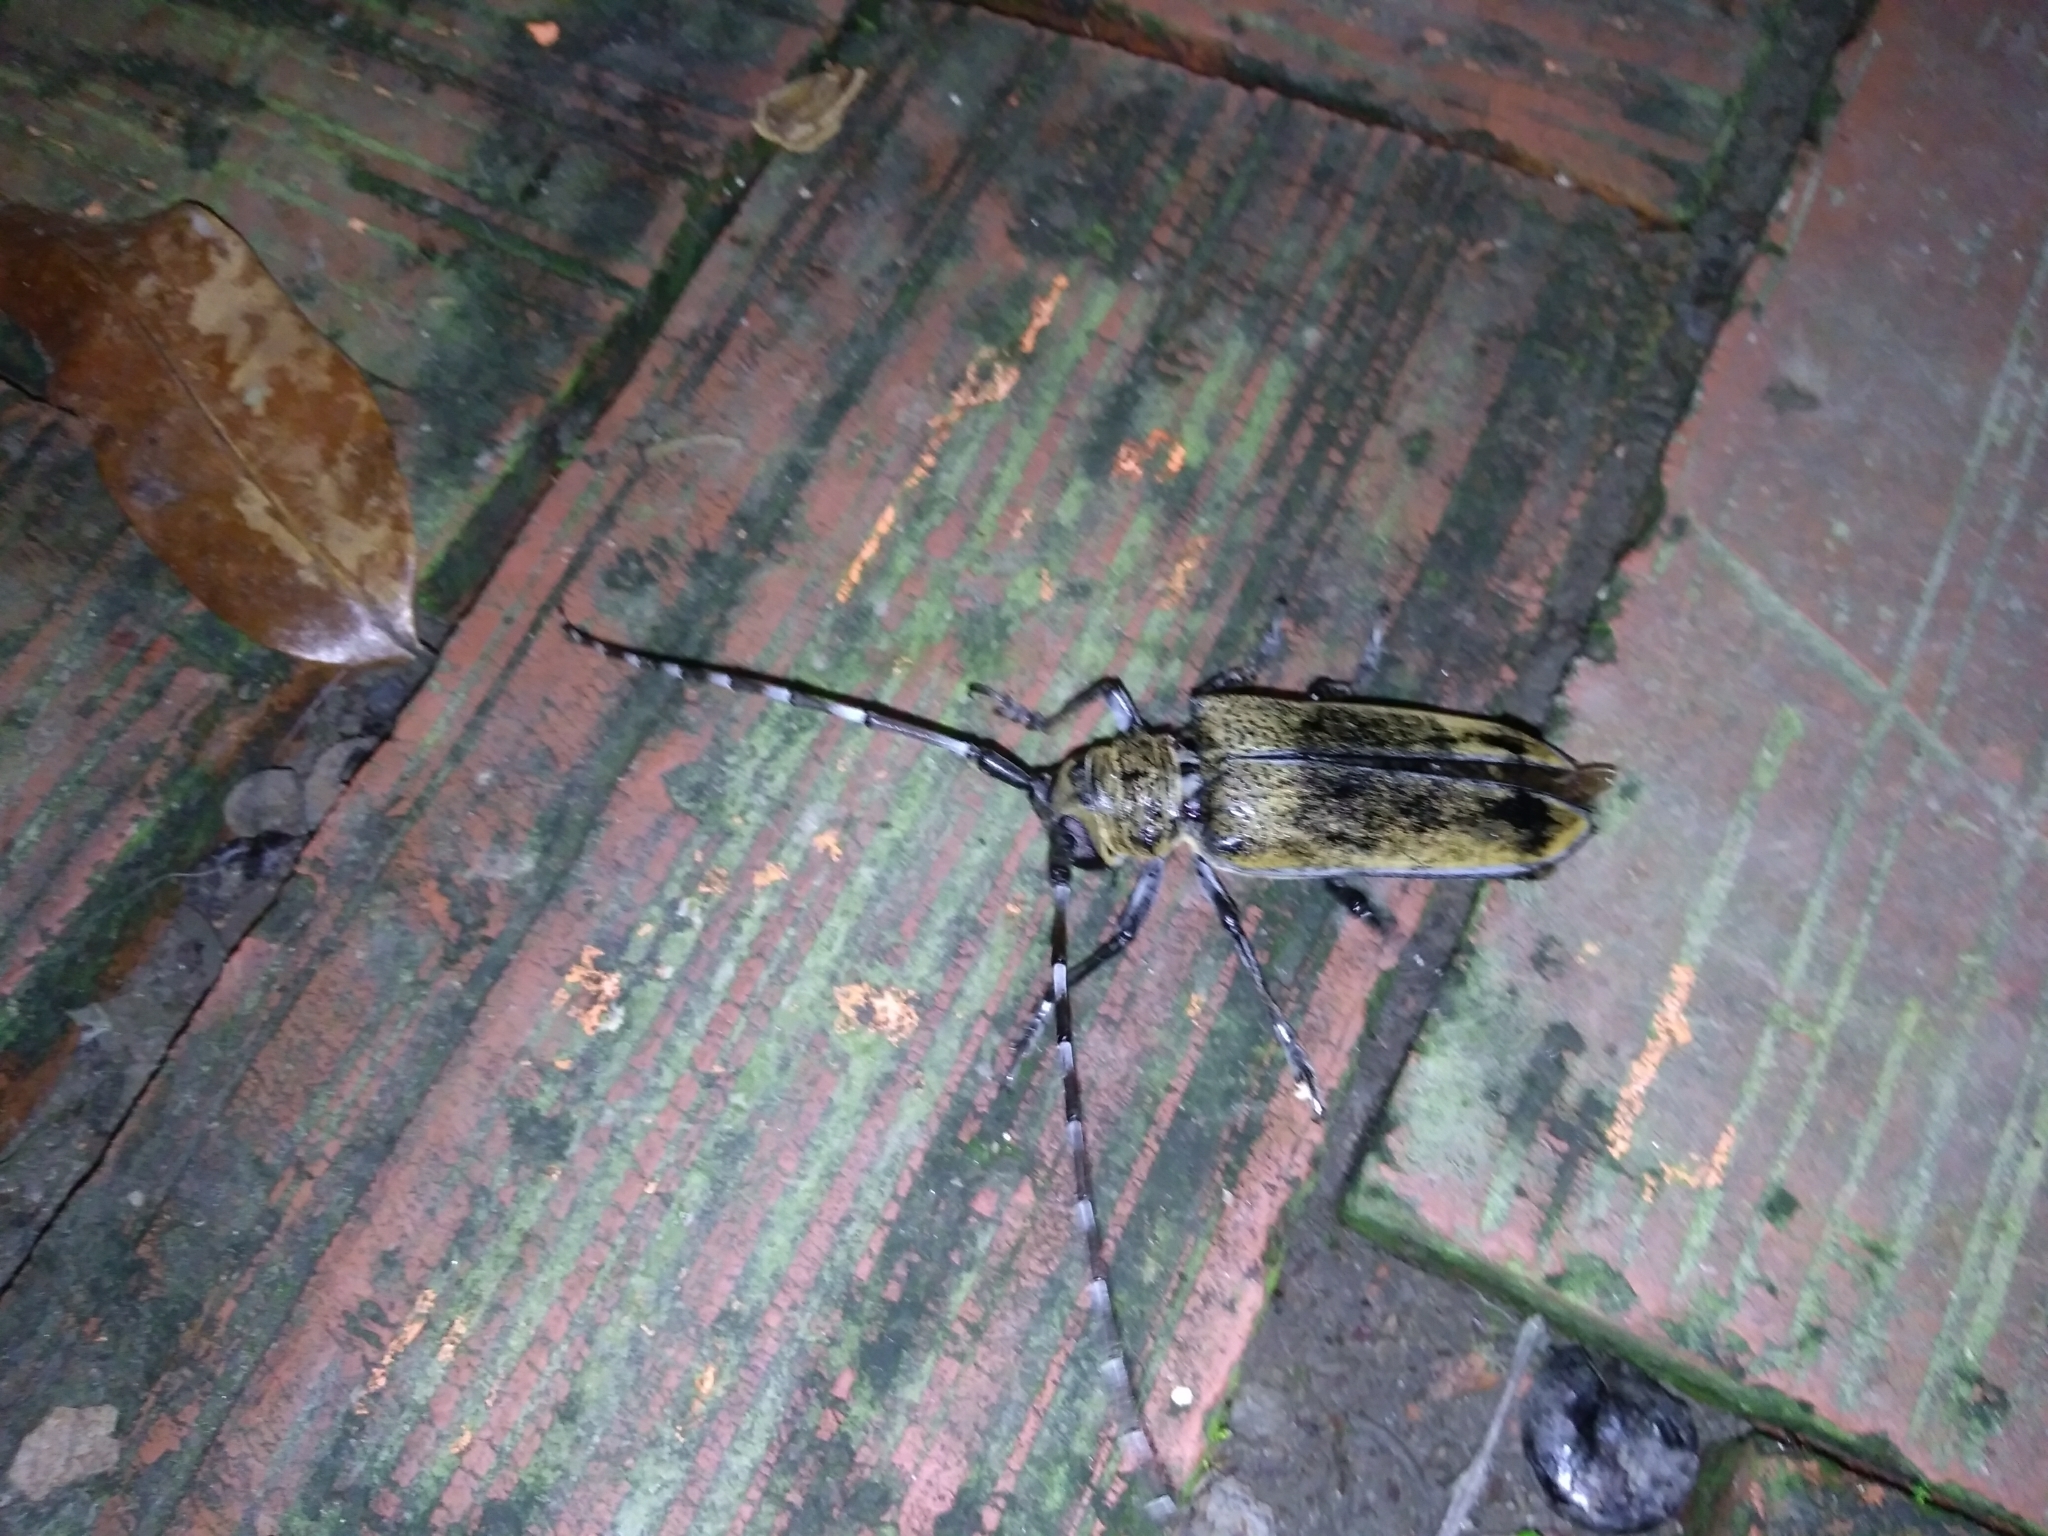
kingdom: Animalia
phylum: Arthropoda
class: Insecta
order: Coleoptera
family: Cerambycidae
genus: Apriona
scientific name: Apriona rugicollis
